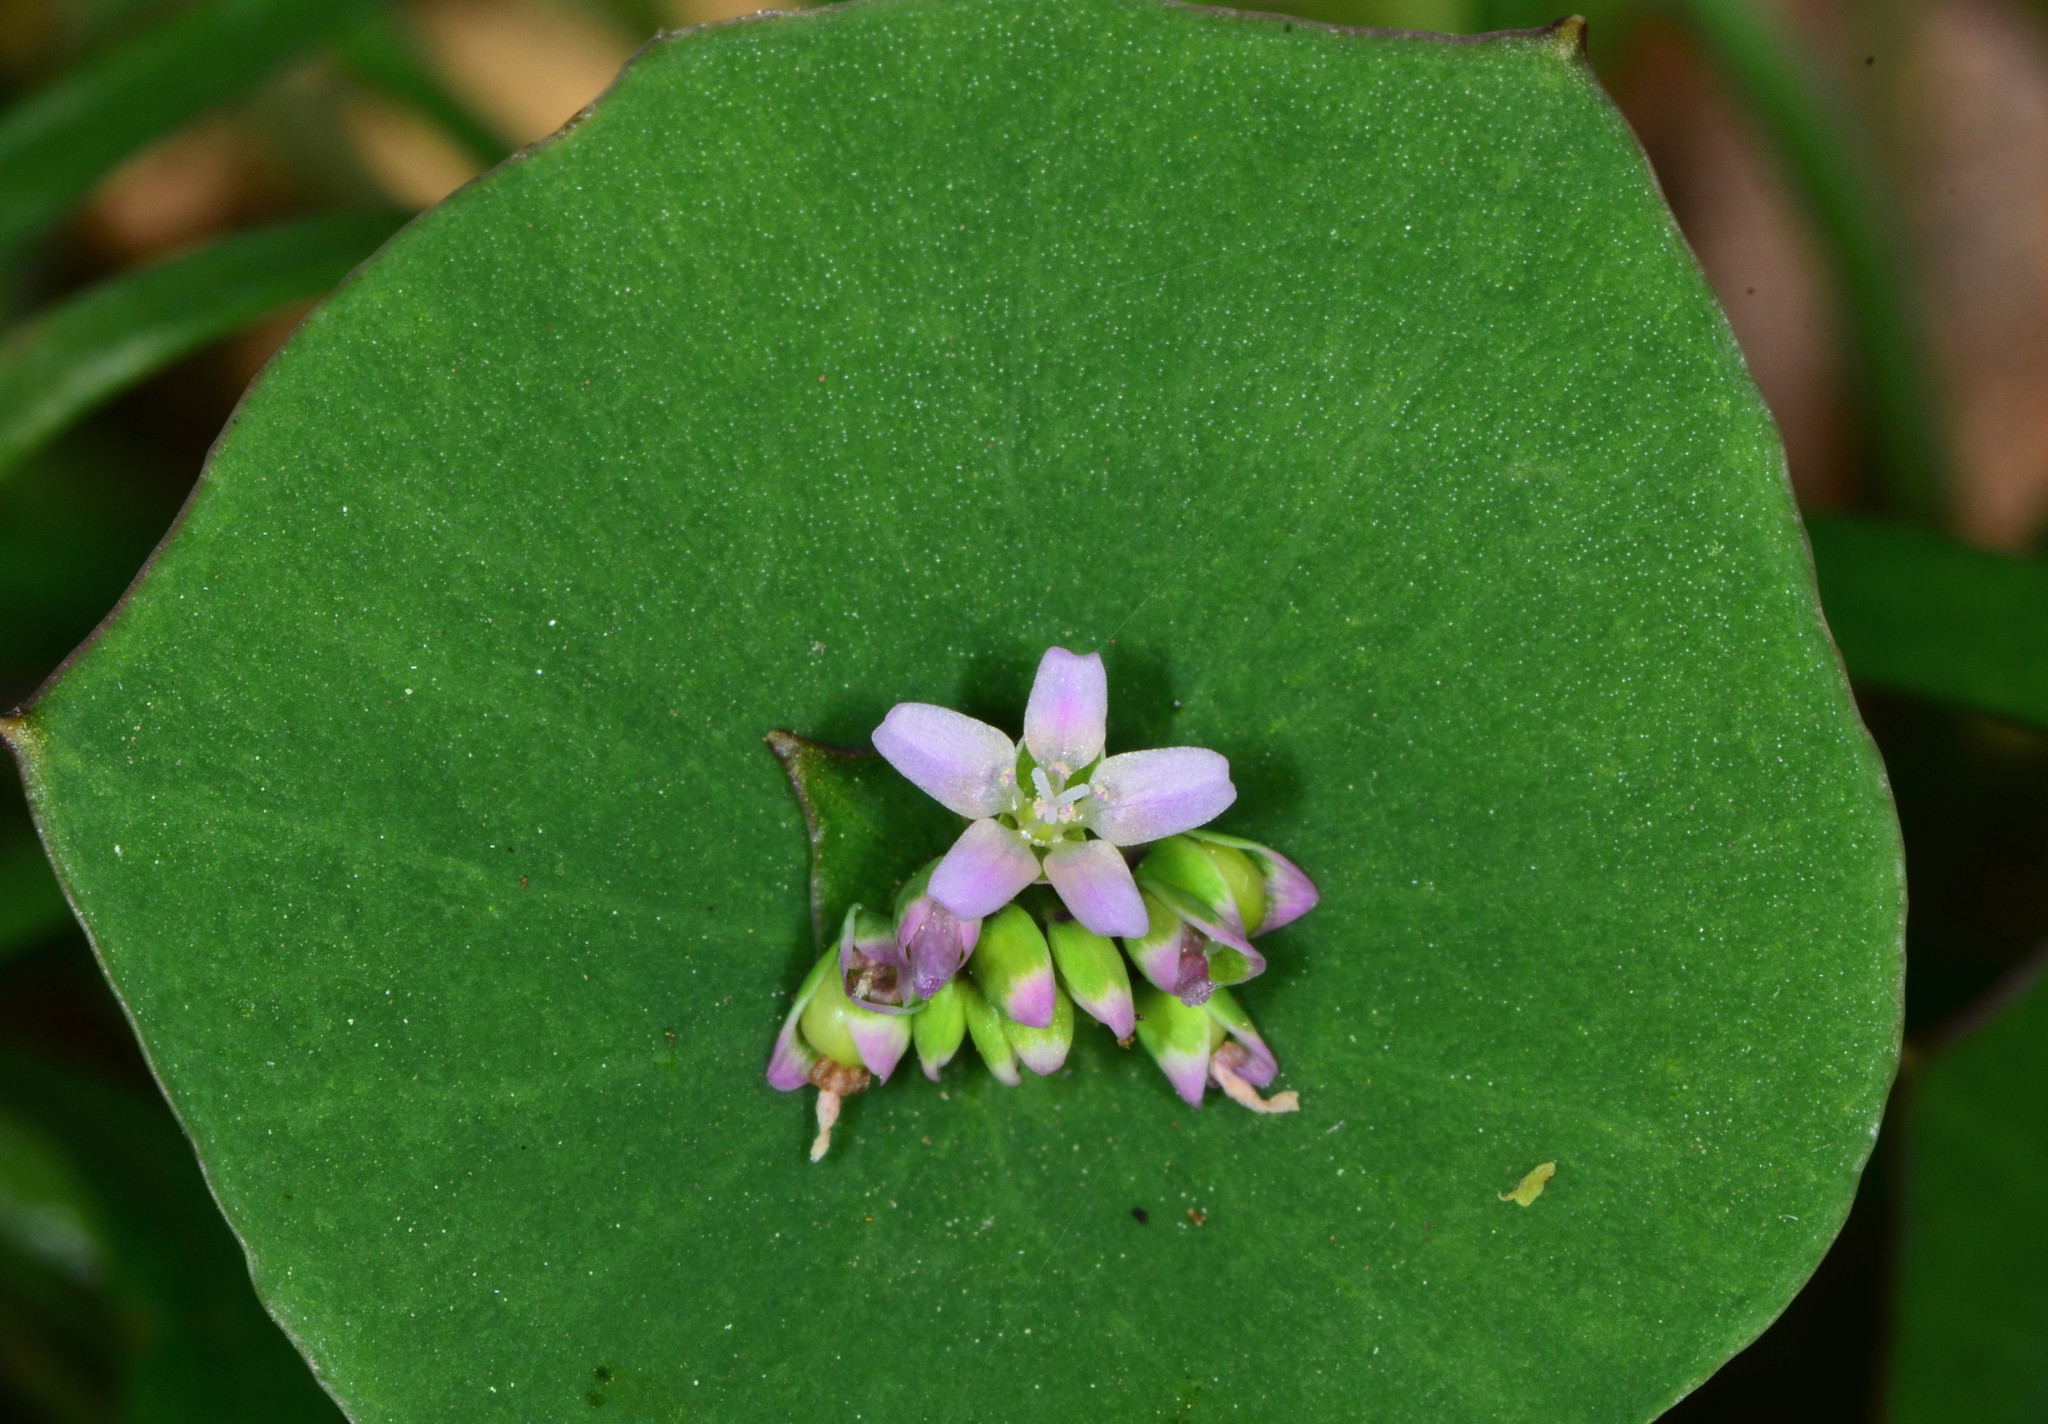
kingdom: Plantae
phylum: Tracheophyta
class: Magnoliopsida
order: Caryophyllales
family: Montiaceae
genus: Claytonia
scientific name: Claytonia perfoliata
